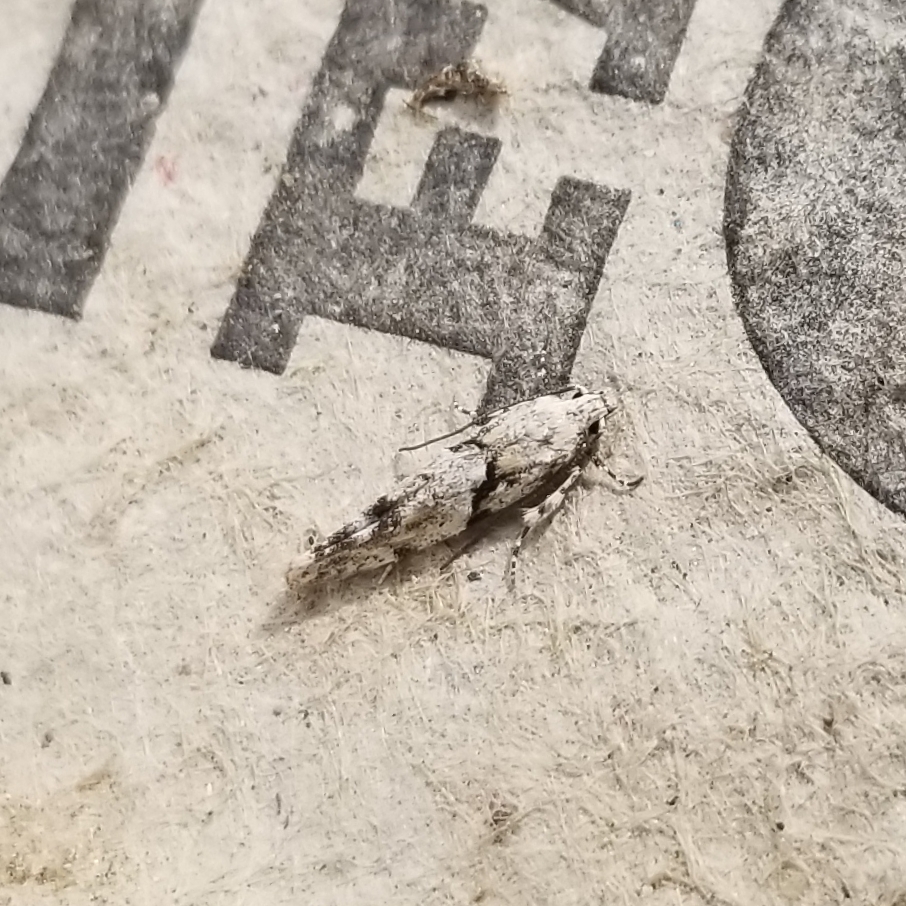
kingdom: Animalia
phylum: Arthropoda
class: Insecta
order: Lepidoptera
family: Gelechiidae
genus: Arogalea
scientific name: Arogalea cristifasciella
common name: White stripe-backed moth
